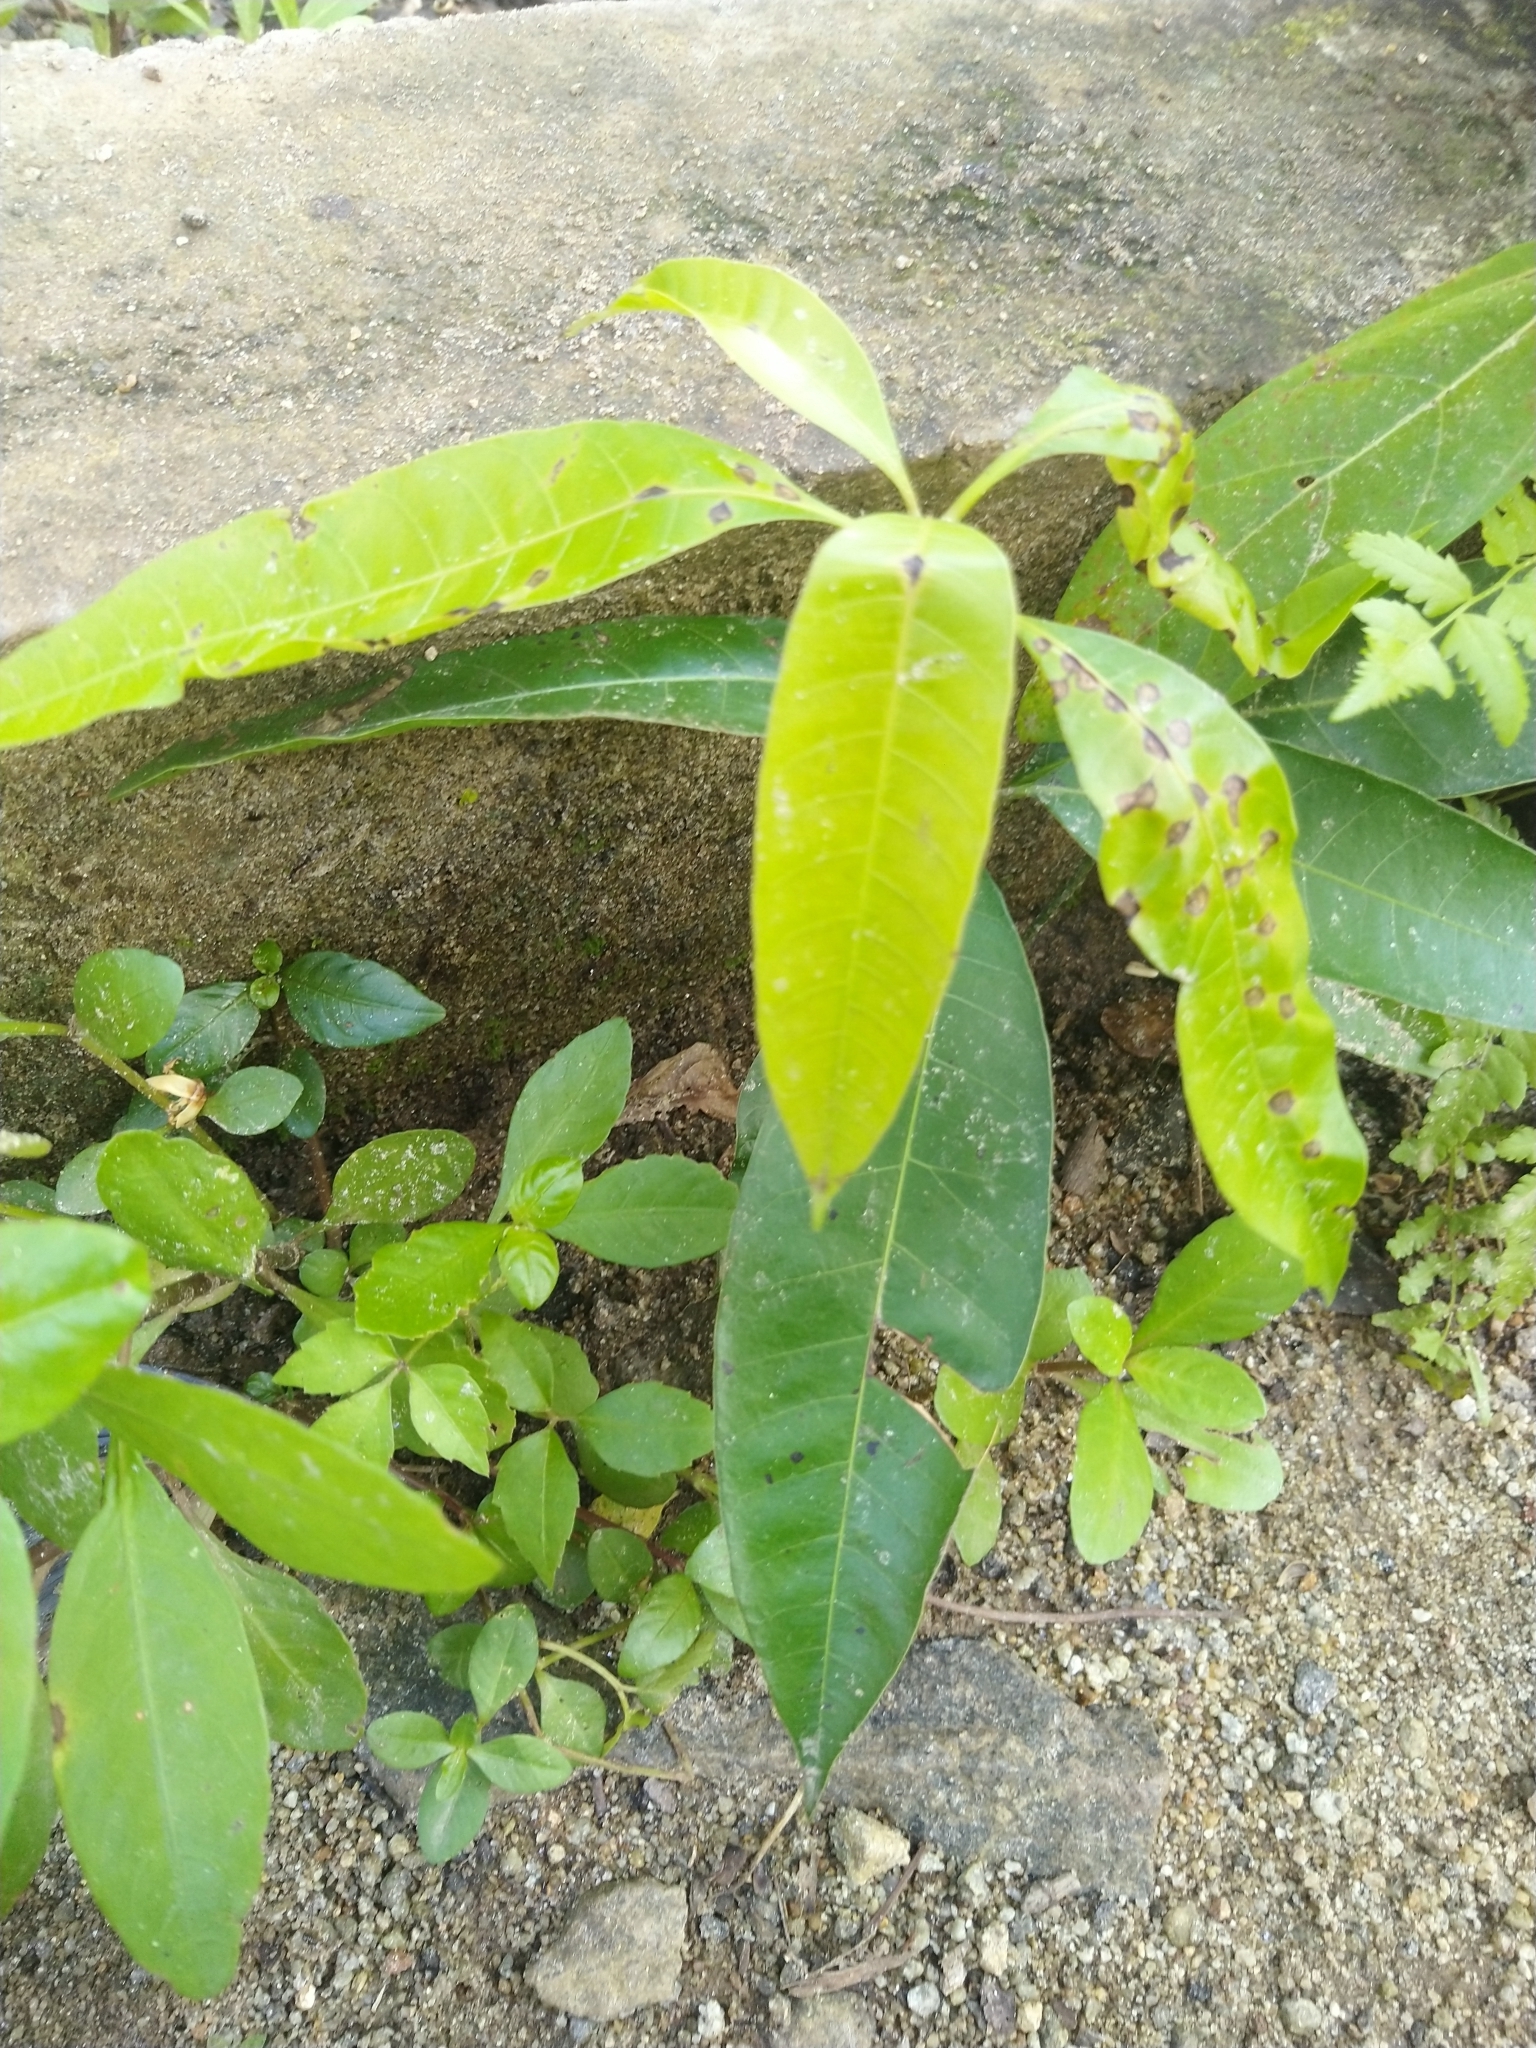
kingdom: Plantae
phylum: Tracheophyta
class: Magnoliopsida
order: Sapindales
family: Anacardiaceae
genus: Mangifera
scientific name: Mangifera indica
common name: Mango
